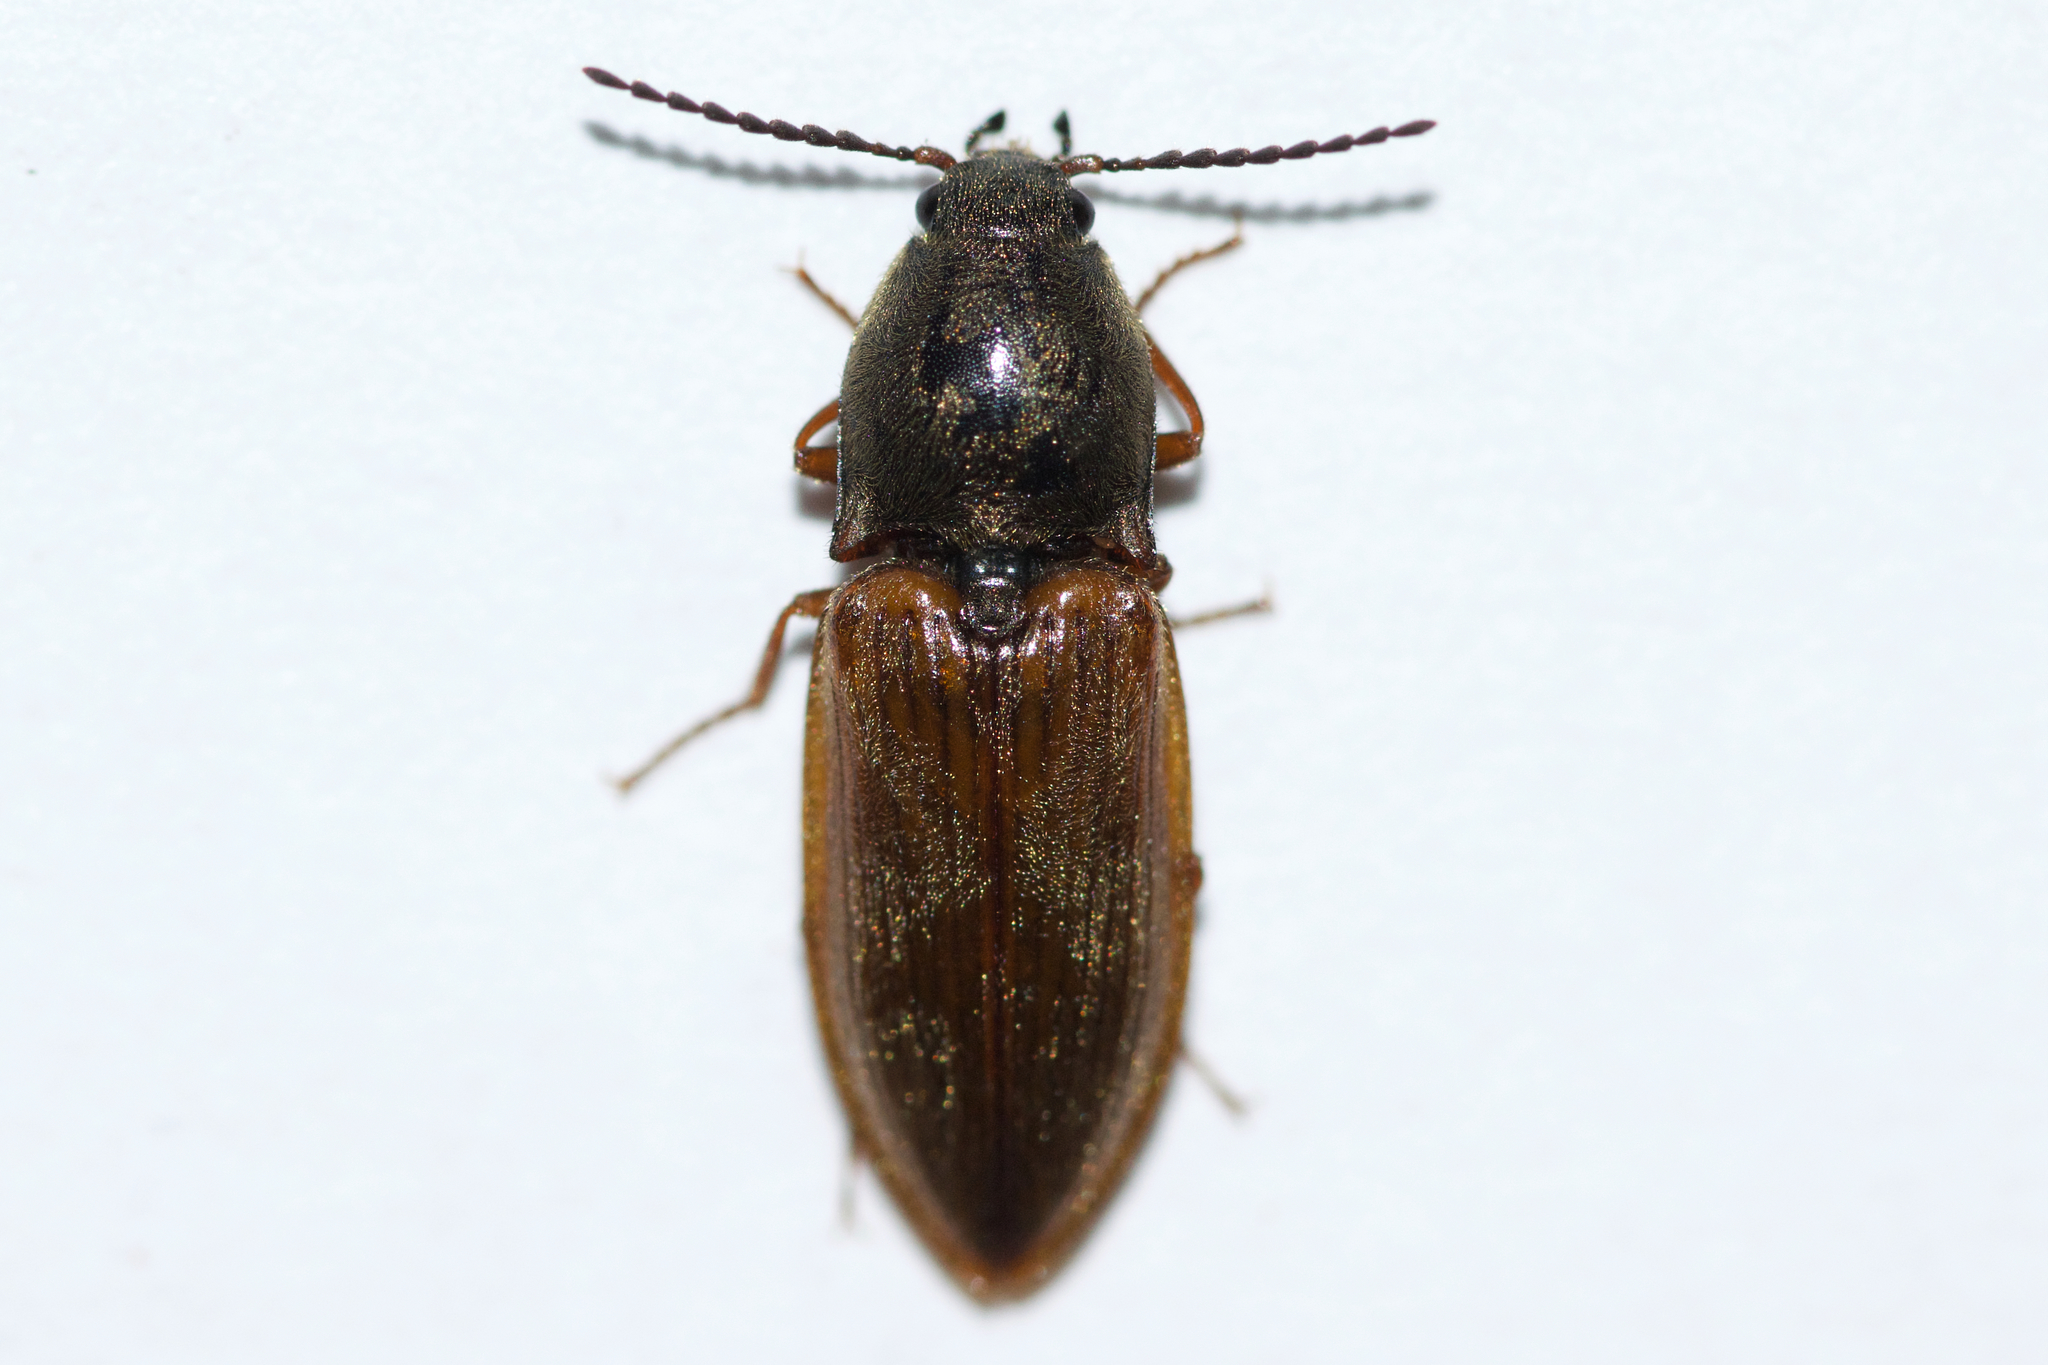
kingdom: Animalia
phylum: Arthropoda
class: Insecta
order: Coleoptera
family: Elateridae
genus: Prosternon
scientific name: Prosternon medianum
